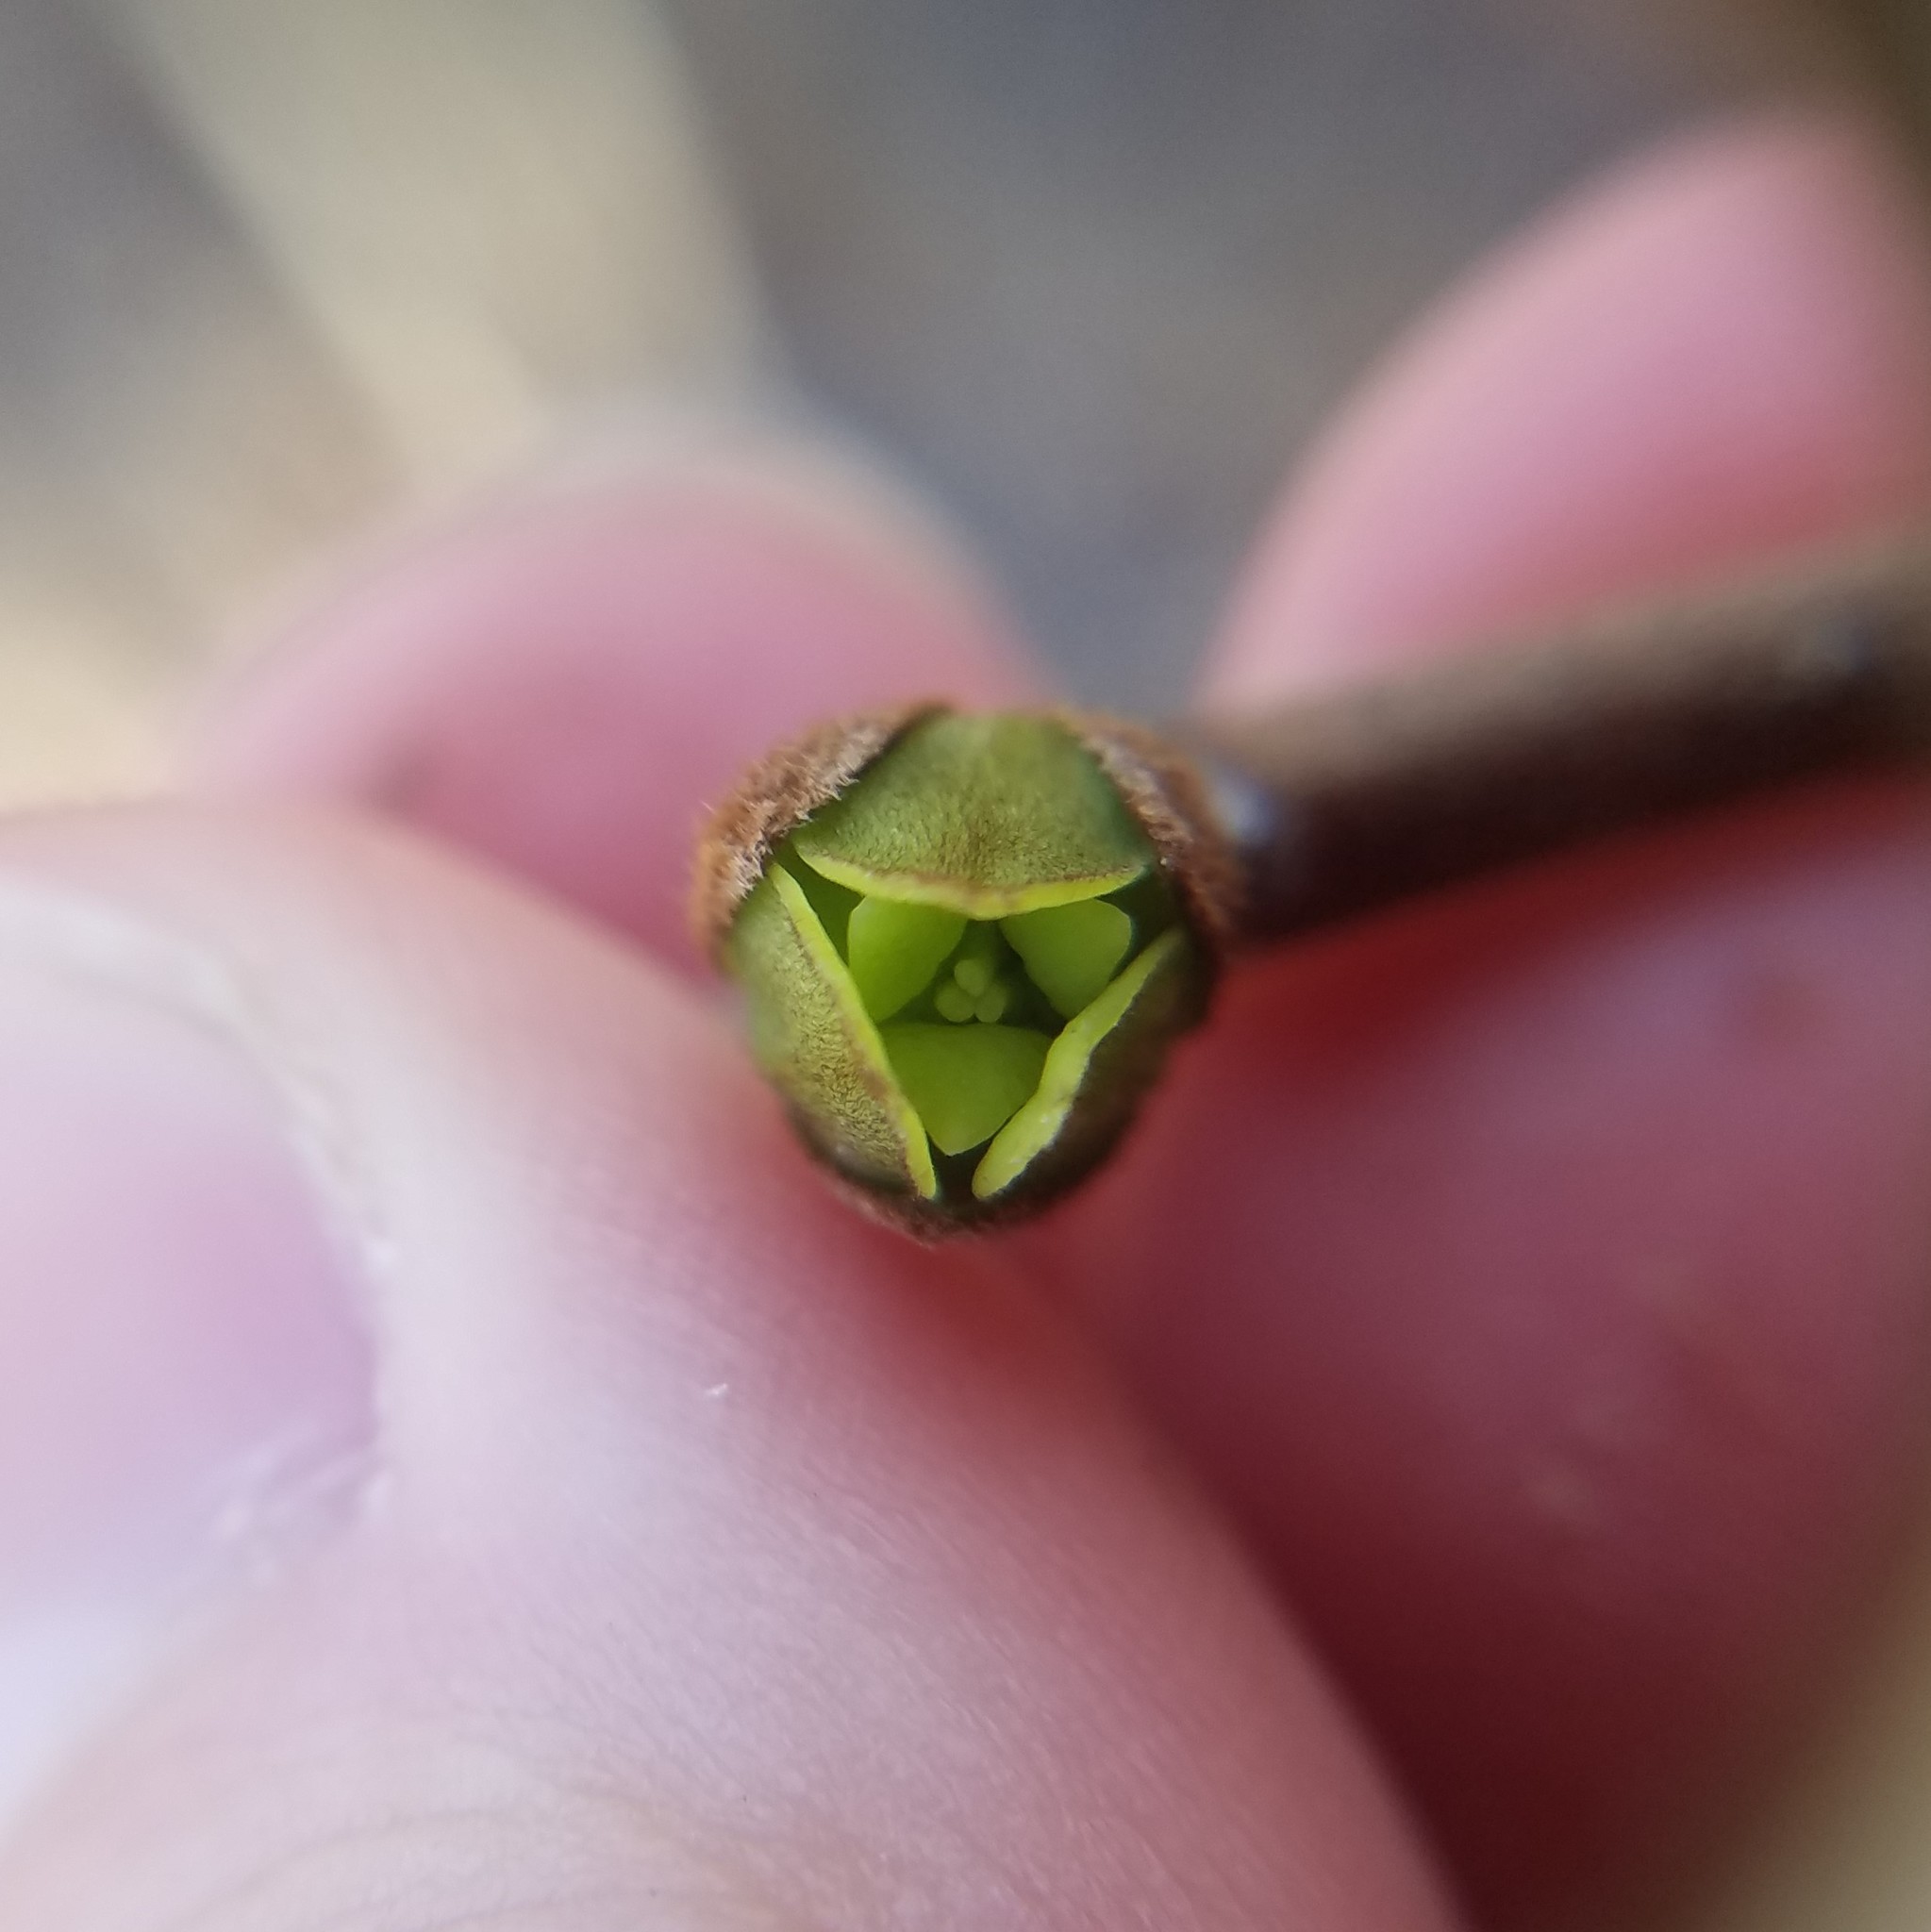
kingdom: Plantae
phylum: Tracheophyta
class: Magnoliopsida
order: Magnoliales
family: Annonaceae
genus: Asimina
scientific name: Asimina parviflora
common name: Dwarf pawpaw
